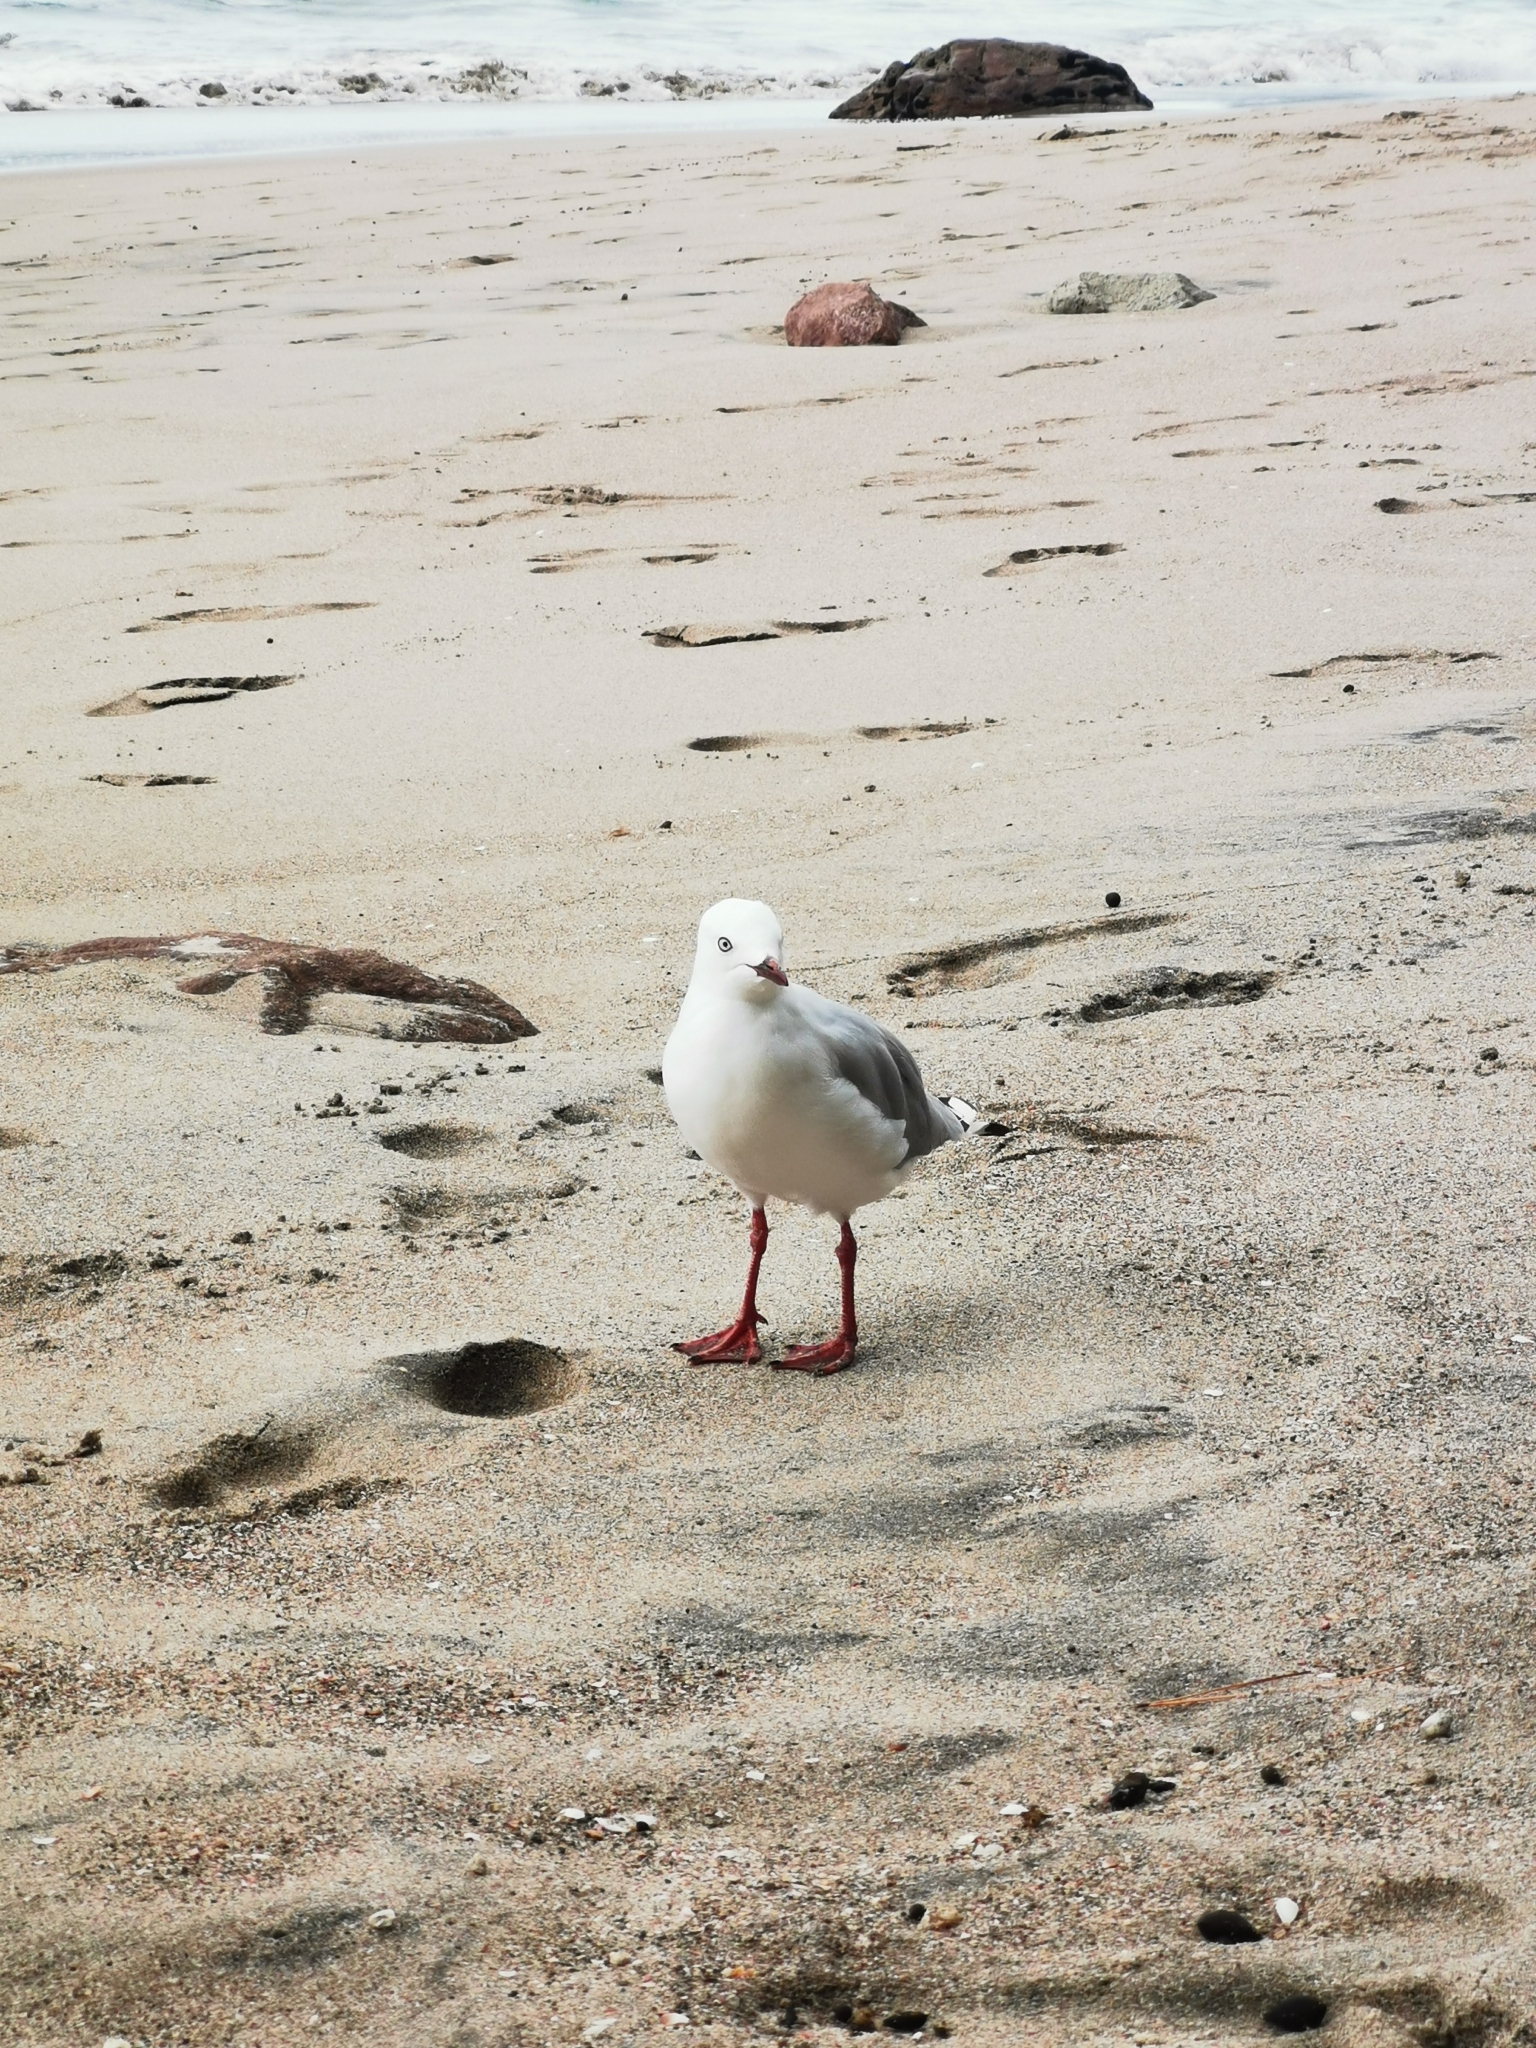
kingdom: Animalia
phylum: Chordata
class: Aves
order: Charadriiformes
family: Laridae
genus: Chroicocephalus
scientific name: Chroicocephalus novaehollandiae
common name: Silver gull
